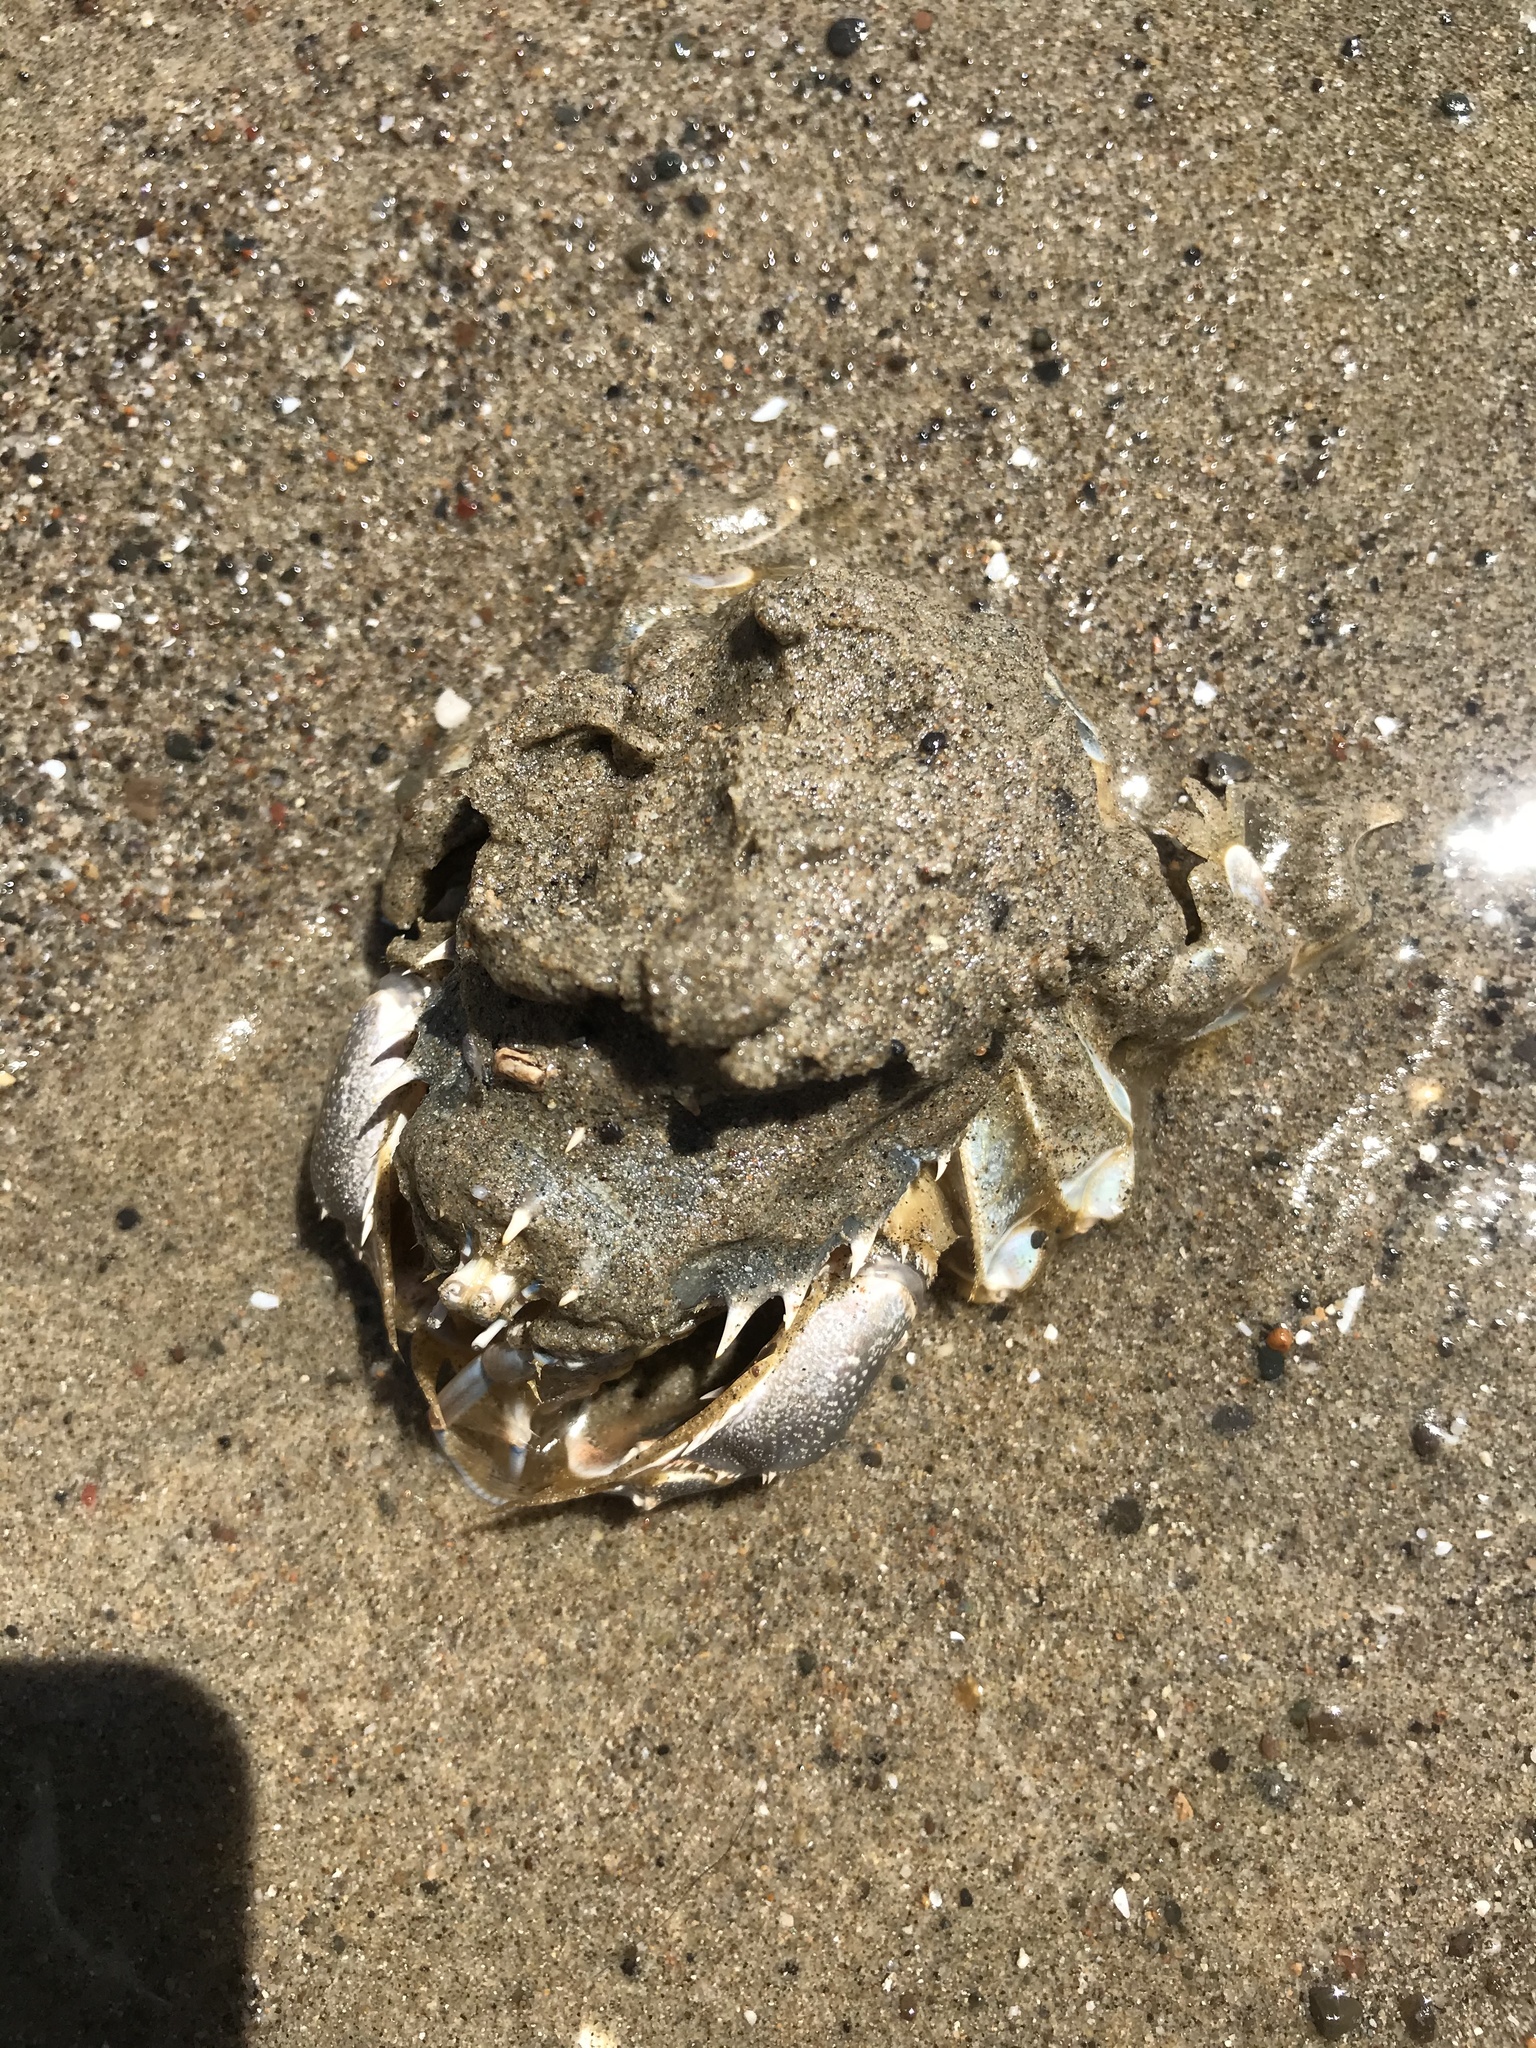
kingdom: Animalia
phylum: Arthropoda
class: Malacostraca
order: Decapoda
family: Blepharipodidae
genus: Blepharipoda
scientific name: Blepharipoda occidentalis
